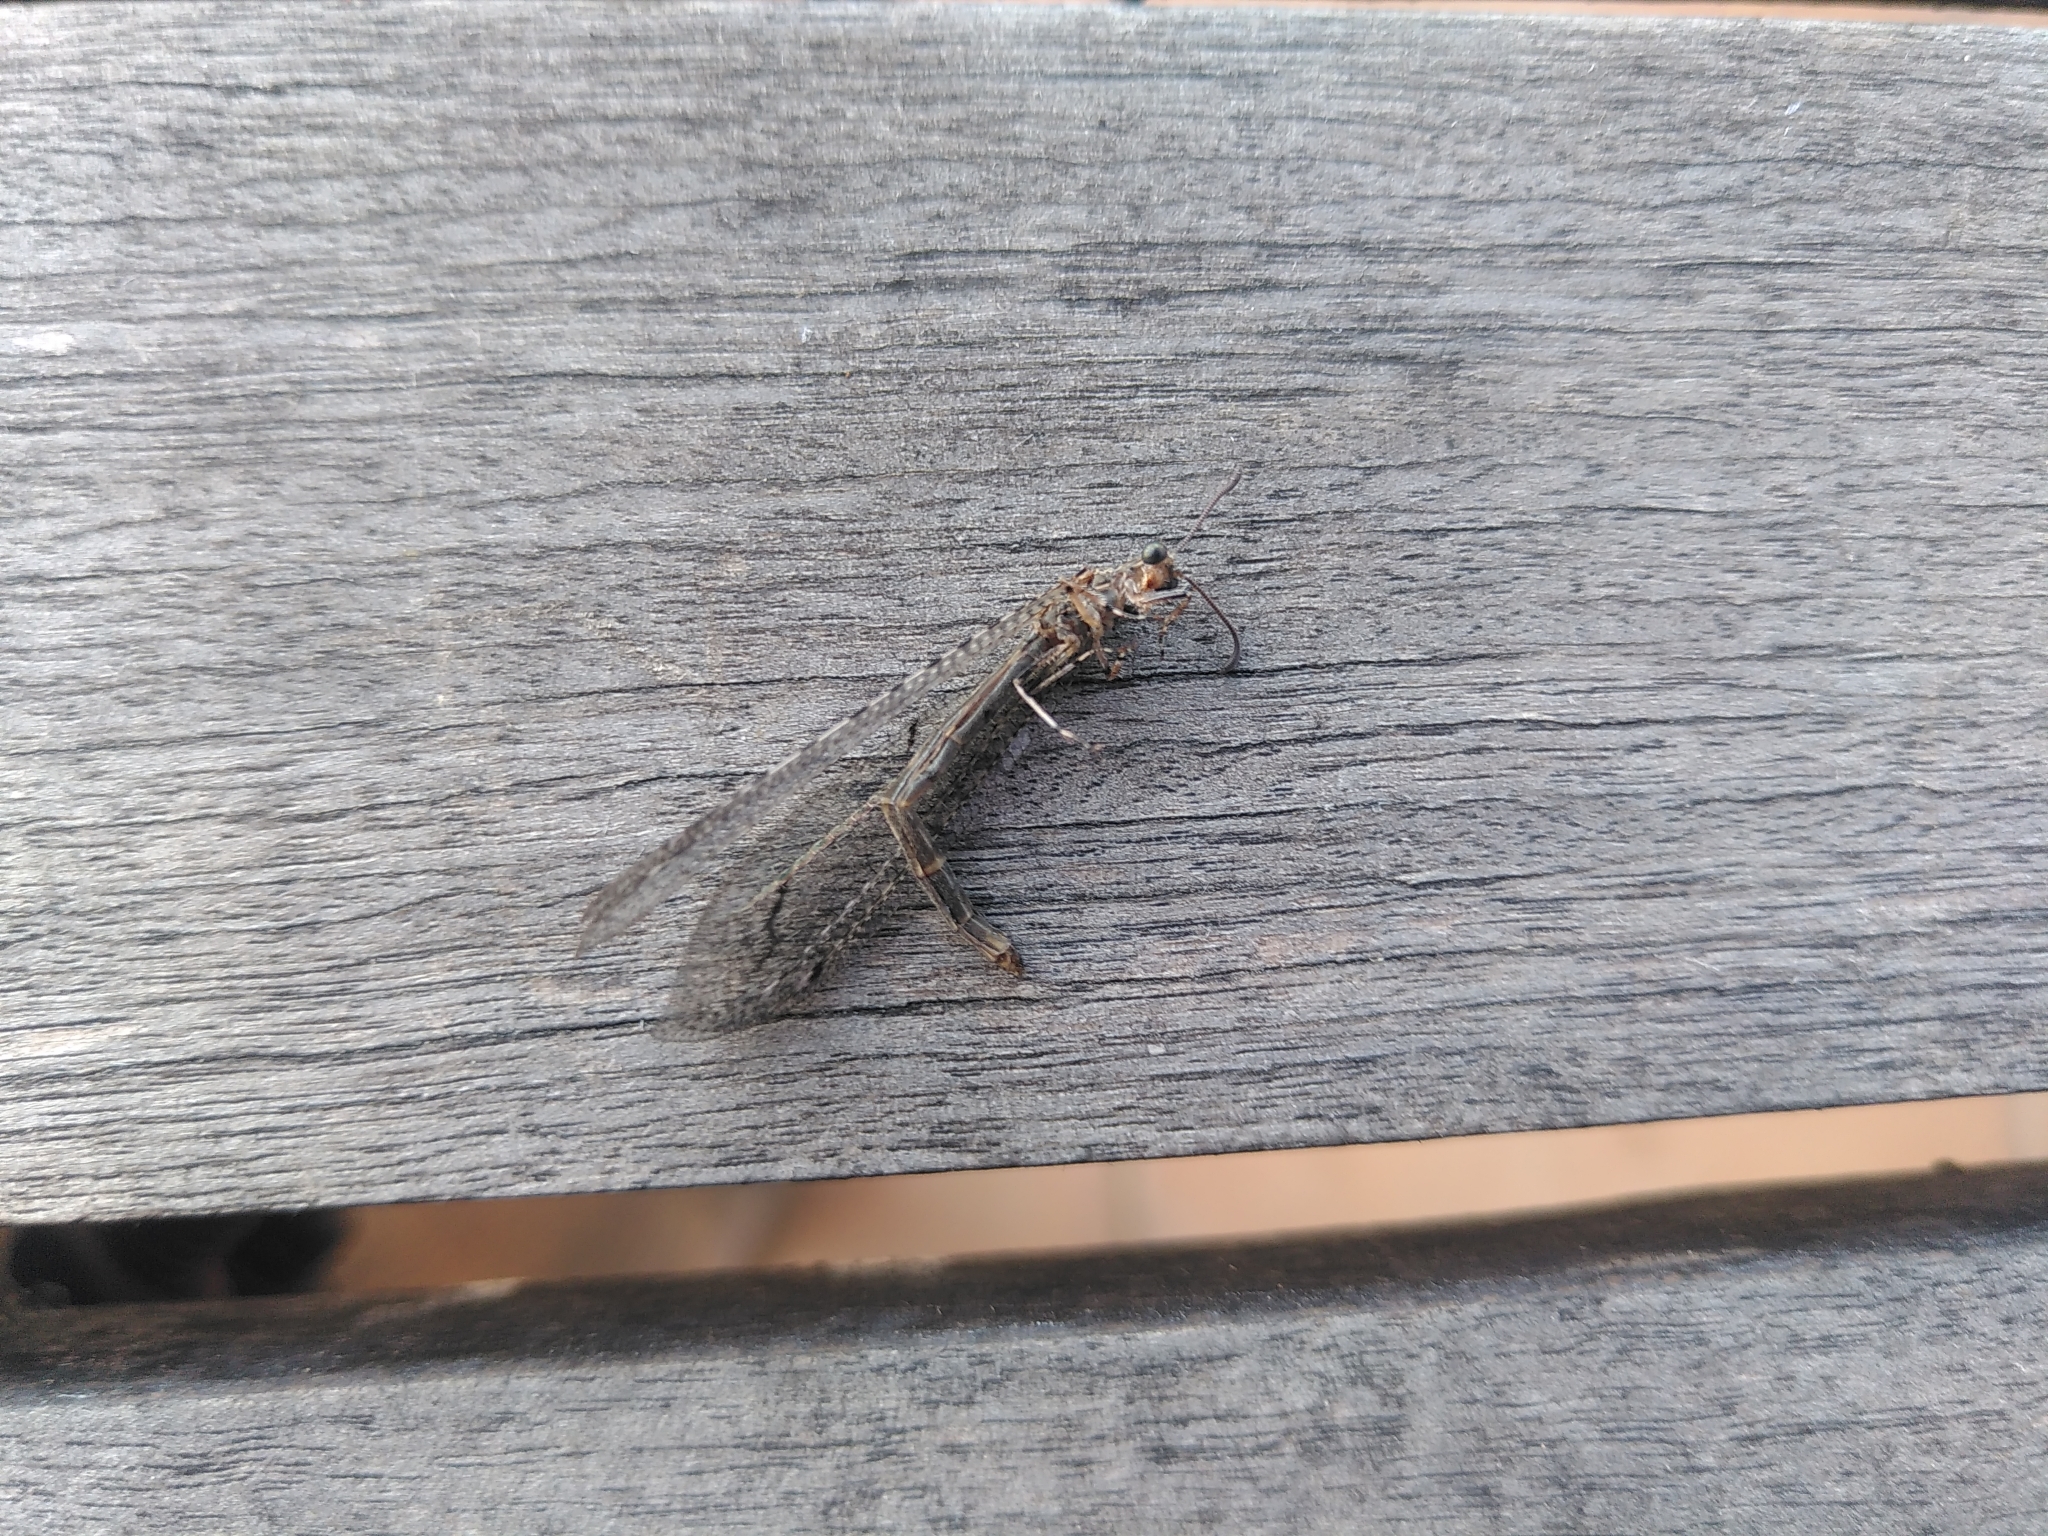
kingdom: Animalia
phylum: Arthropoda
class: Insecta
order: Neuroptera
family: Myrmeleontidae
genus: Neuroleon
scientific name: Neuroleon distichus
